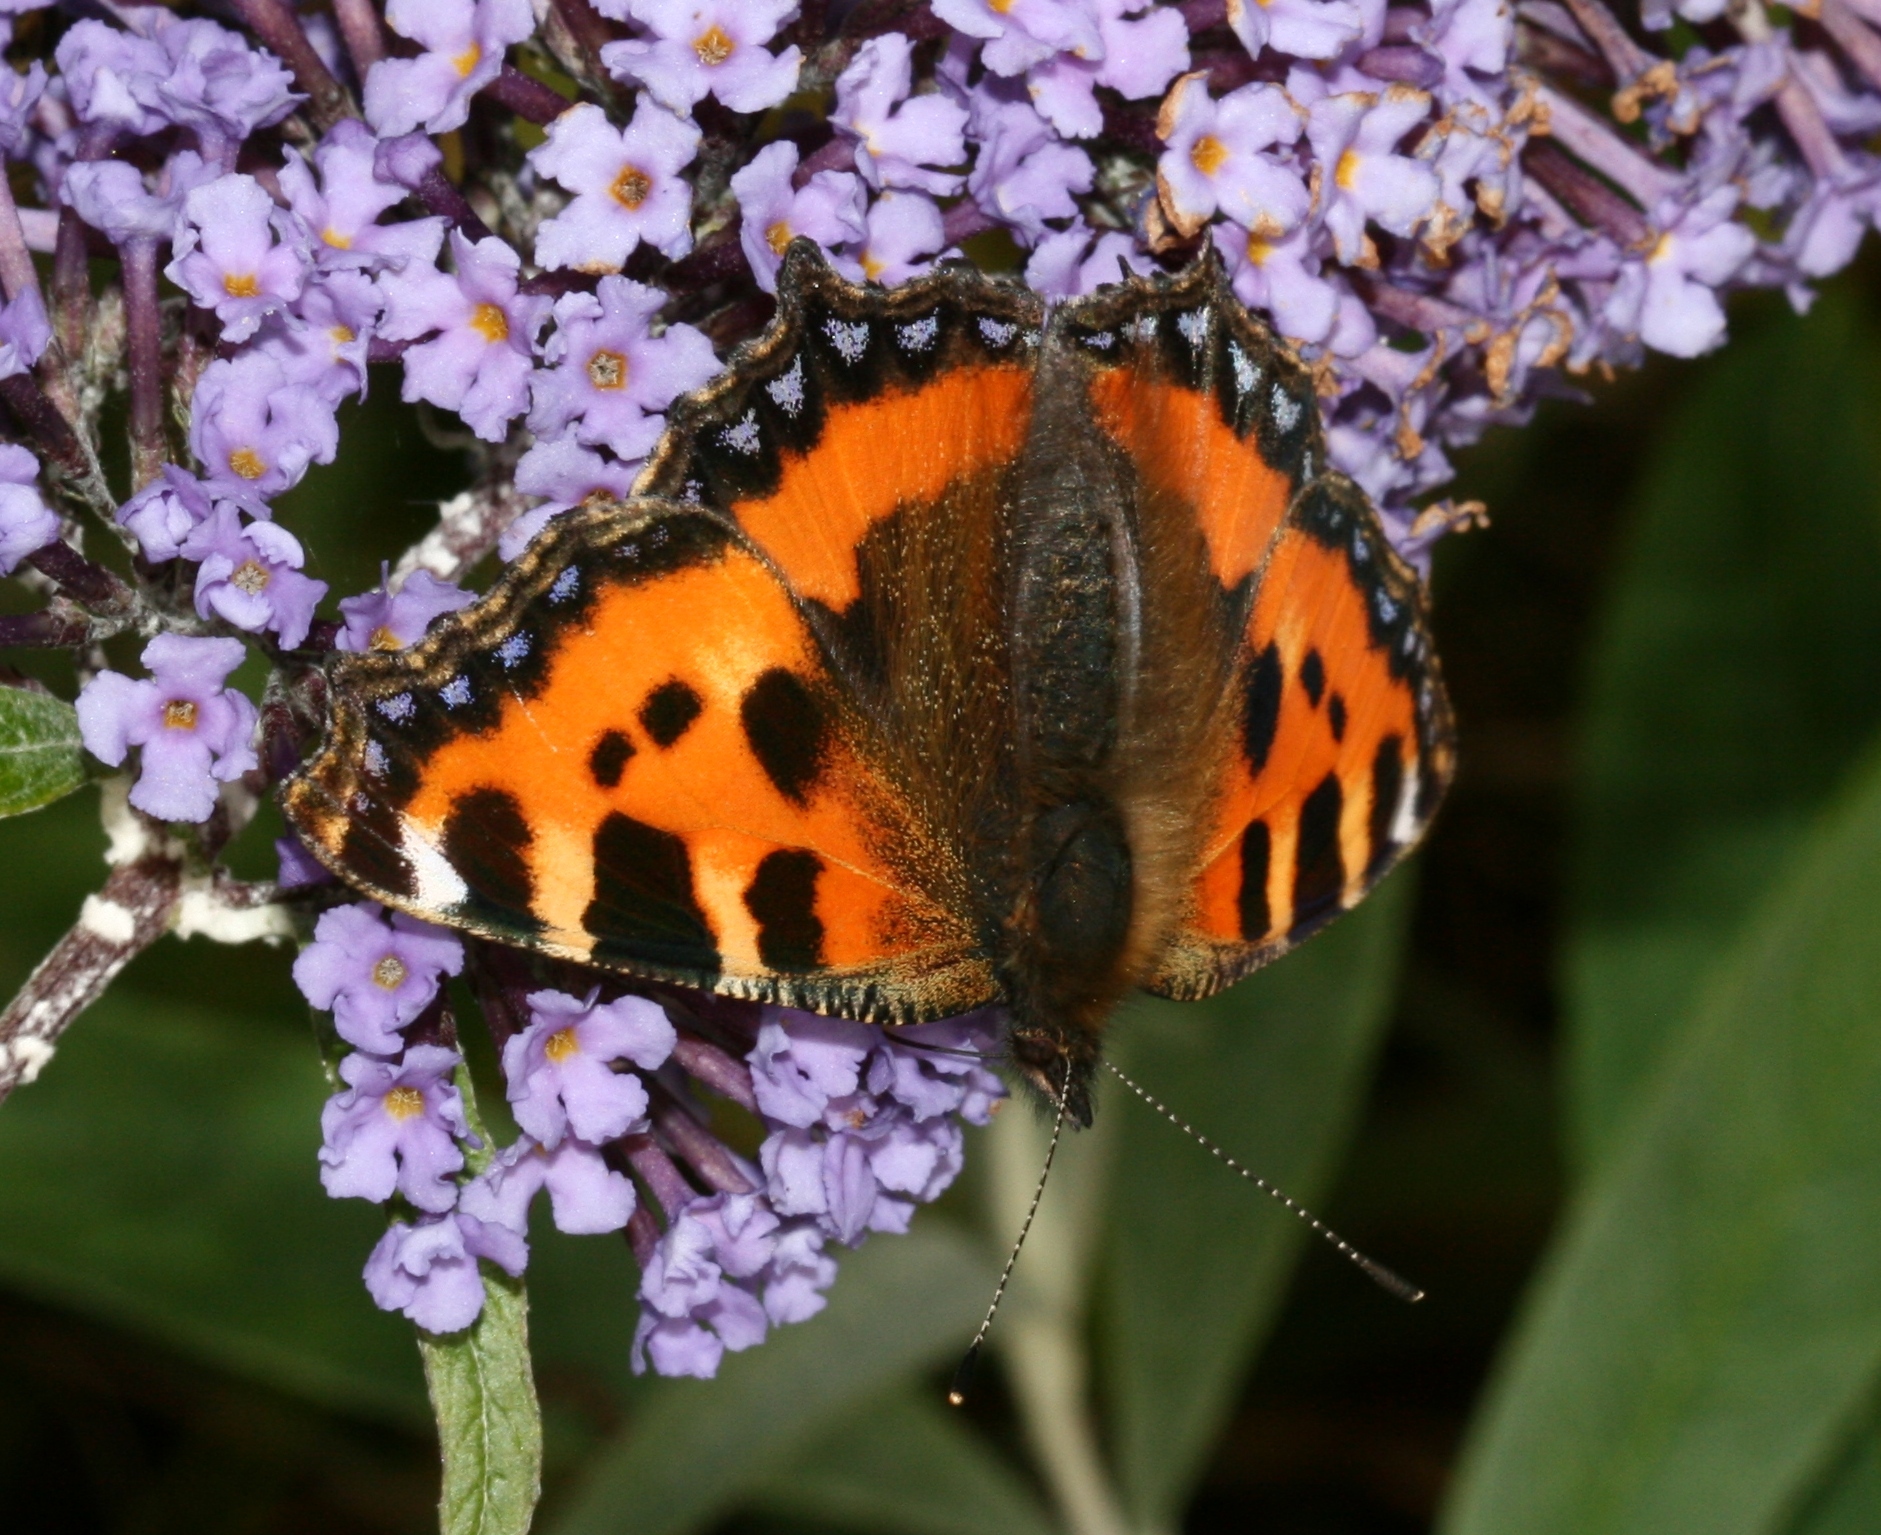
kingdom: Animalia
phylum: Arthropoda
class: Insecta
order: Lepidoptera
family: Nymphalidae
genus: Aglais
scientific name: Aglais urticae
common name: Small tortoiseshell
